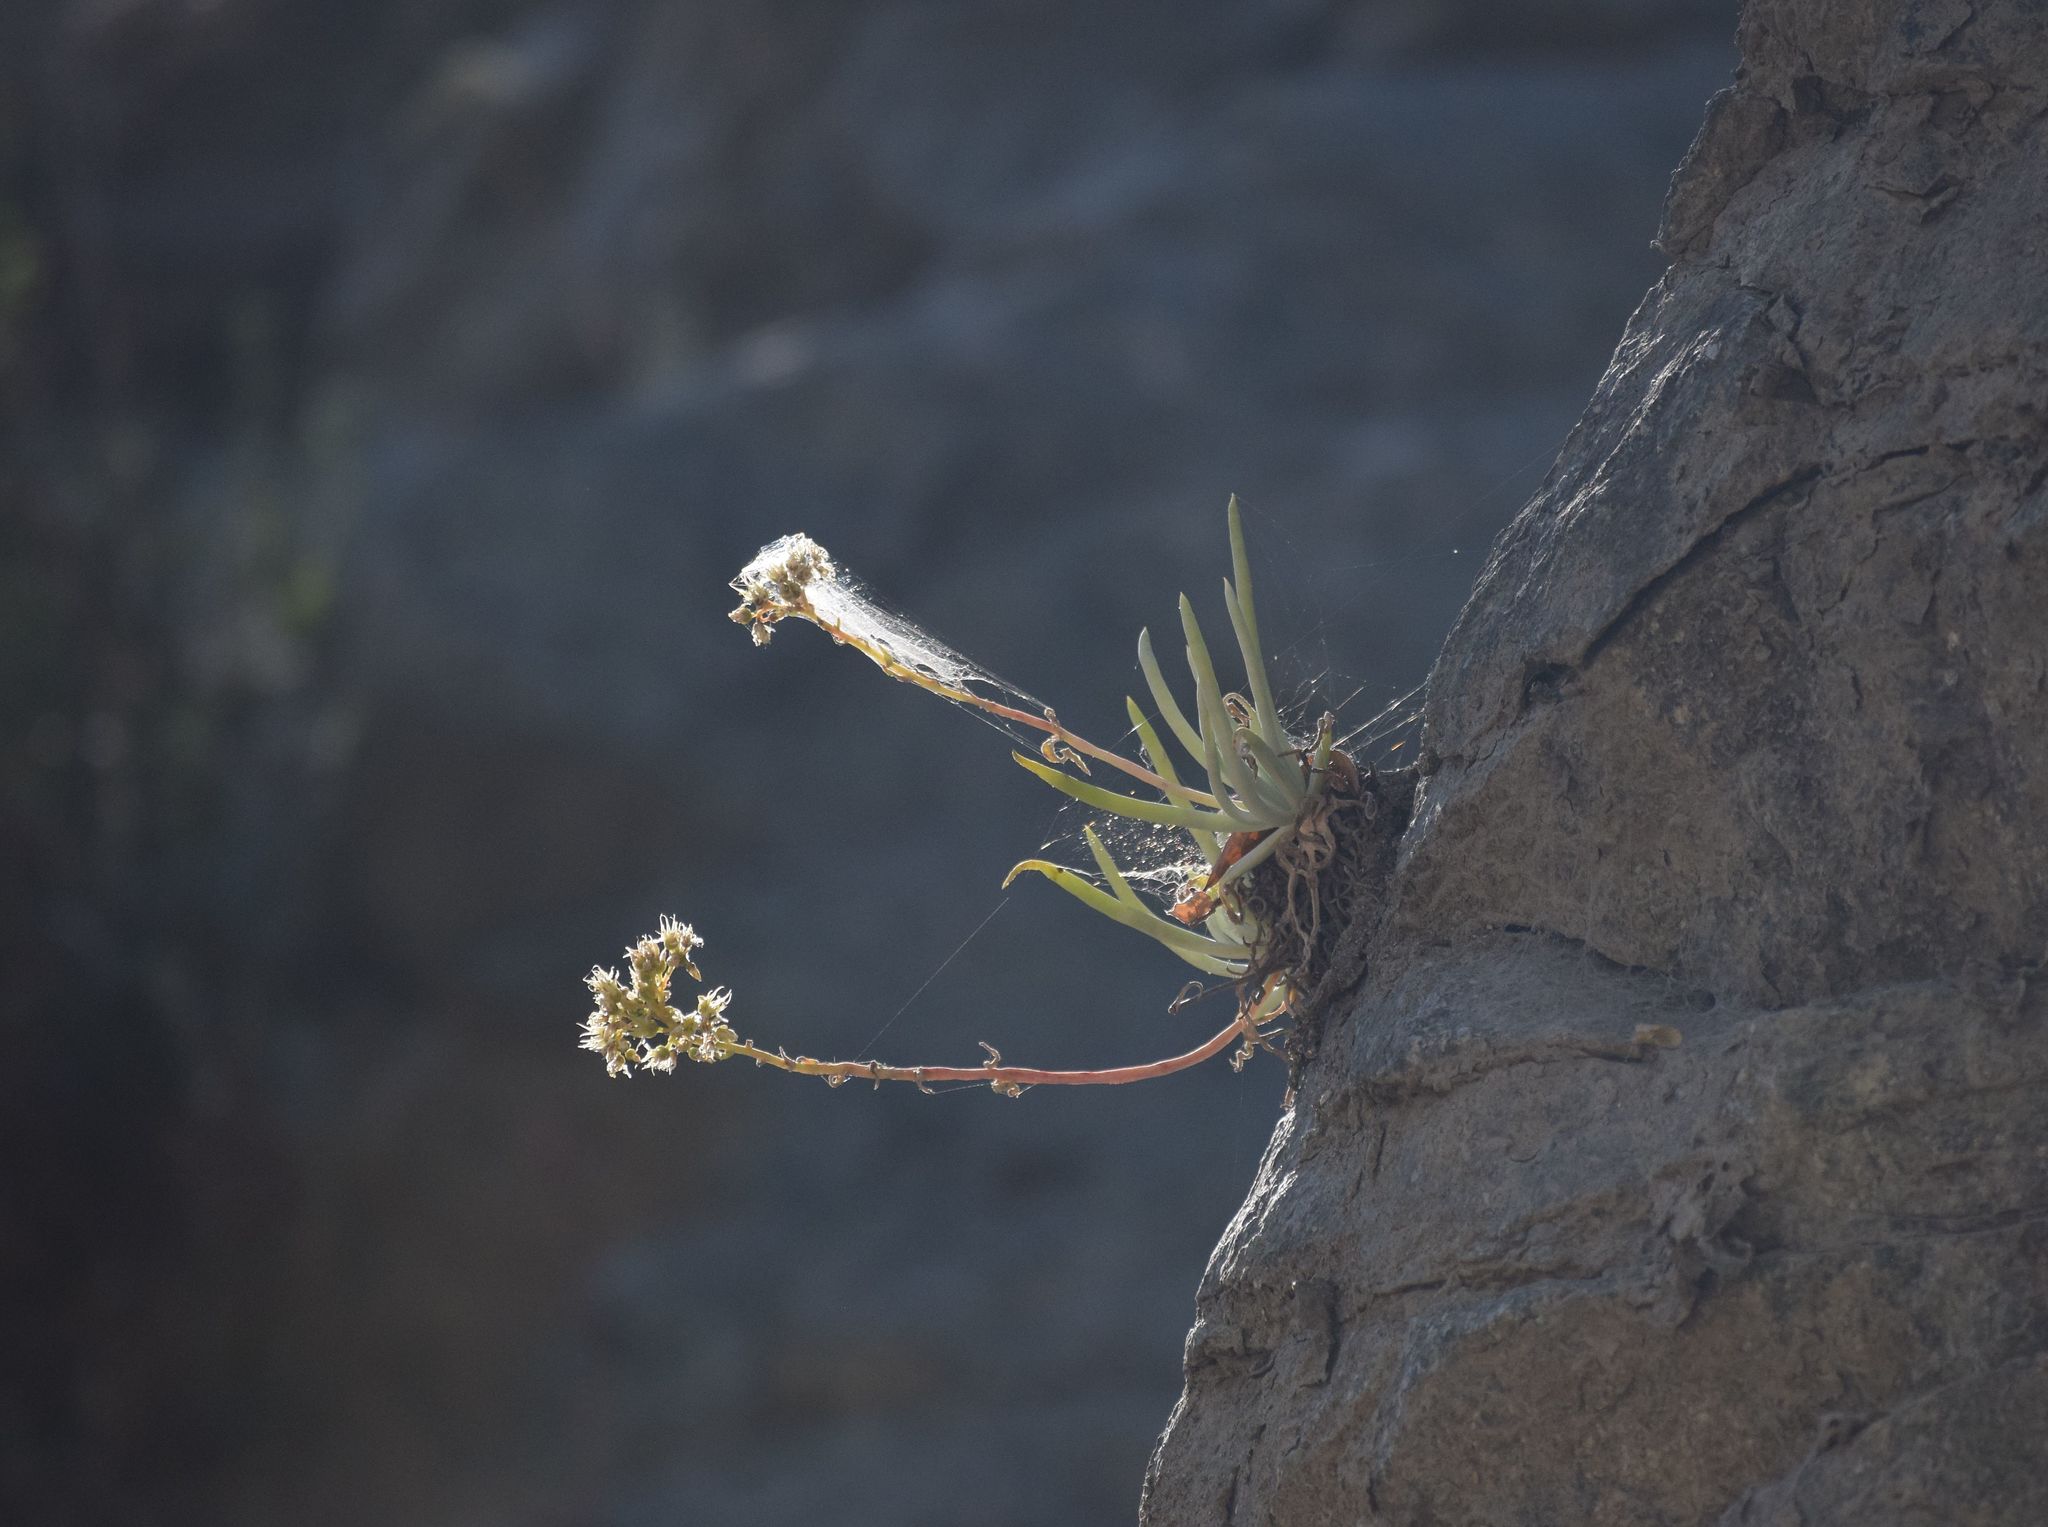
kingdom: Plantae
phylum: Tracheophyta
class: Magnoliopsida
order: Saxifragales
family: Crassulaceae
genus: Dudleya
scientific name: Dudleya densiflora
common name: San gabriel mountains dudleya
